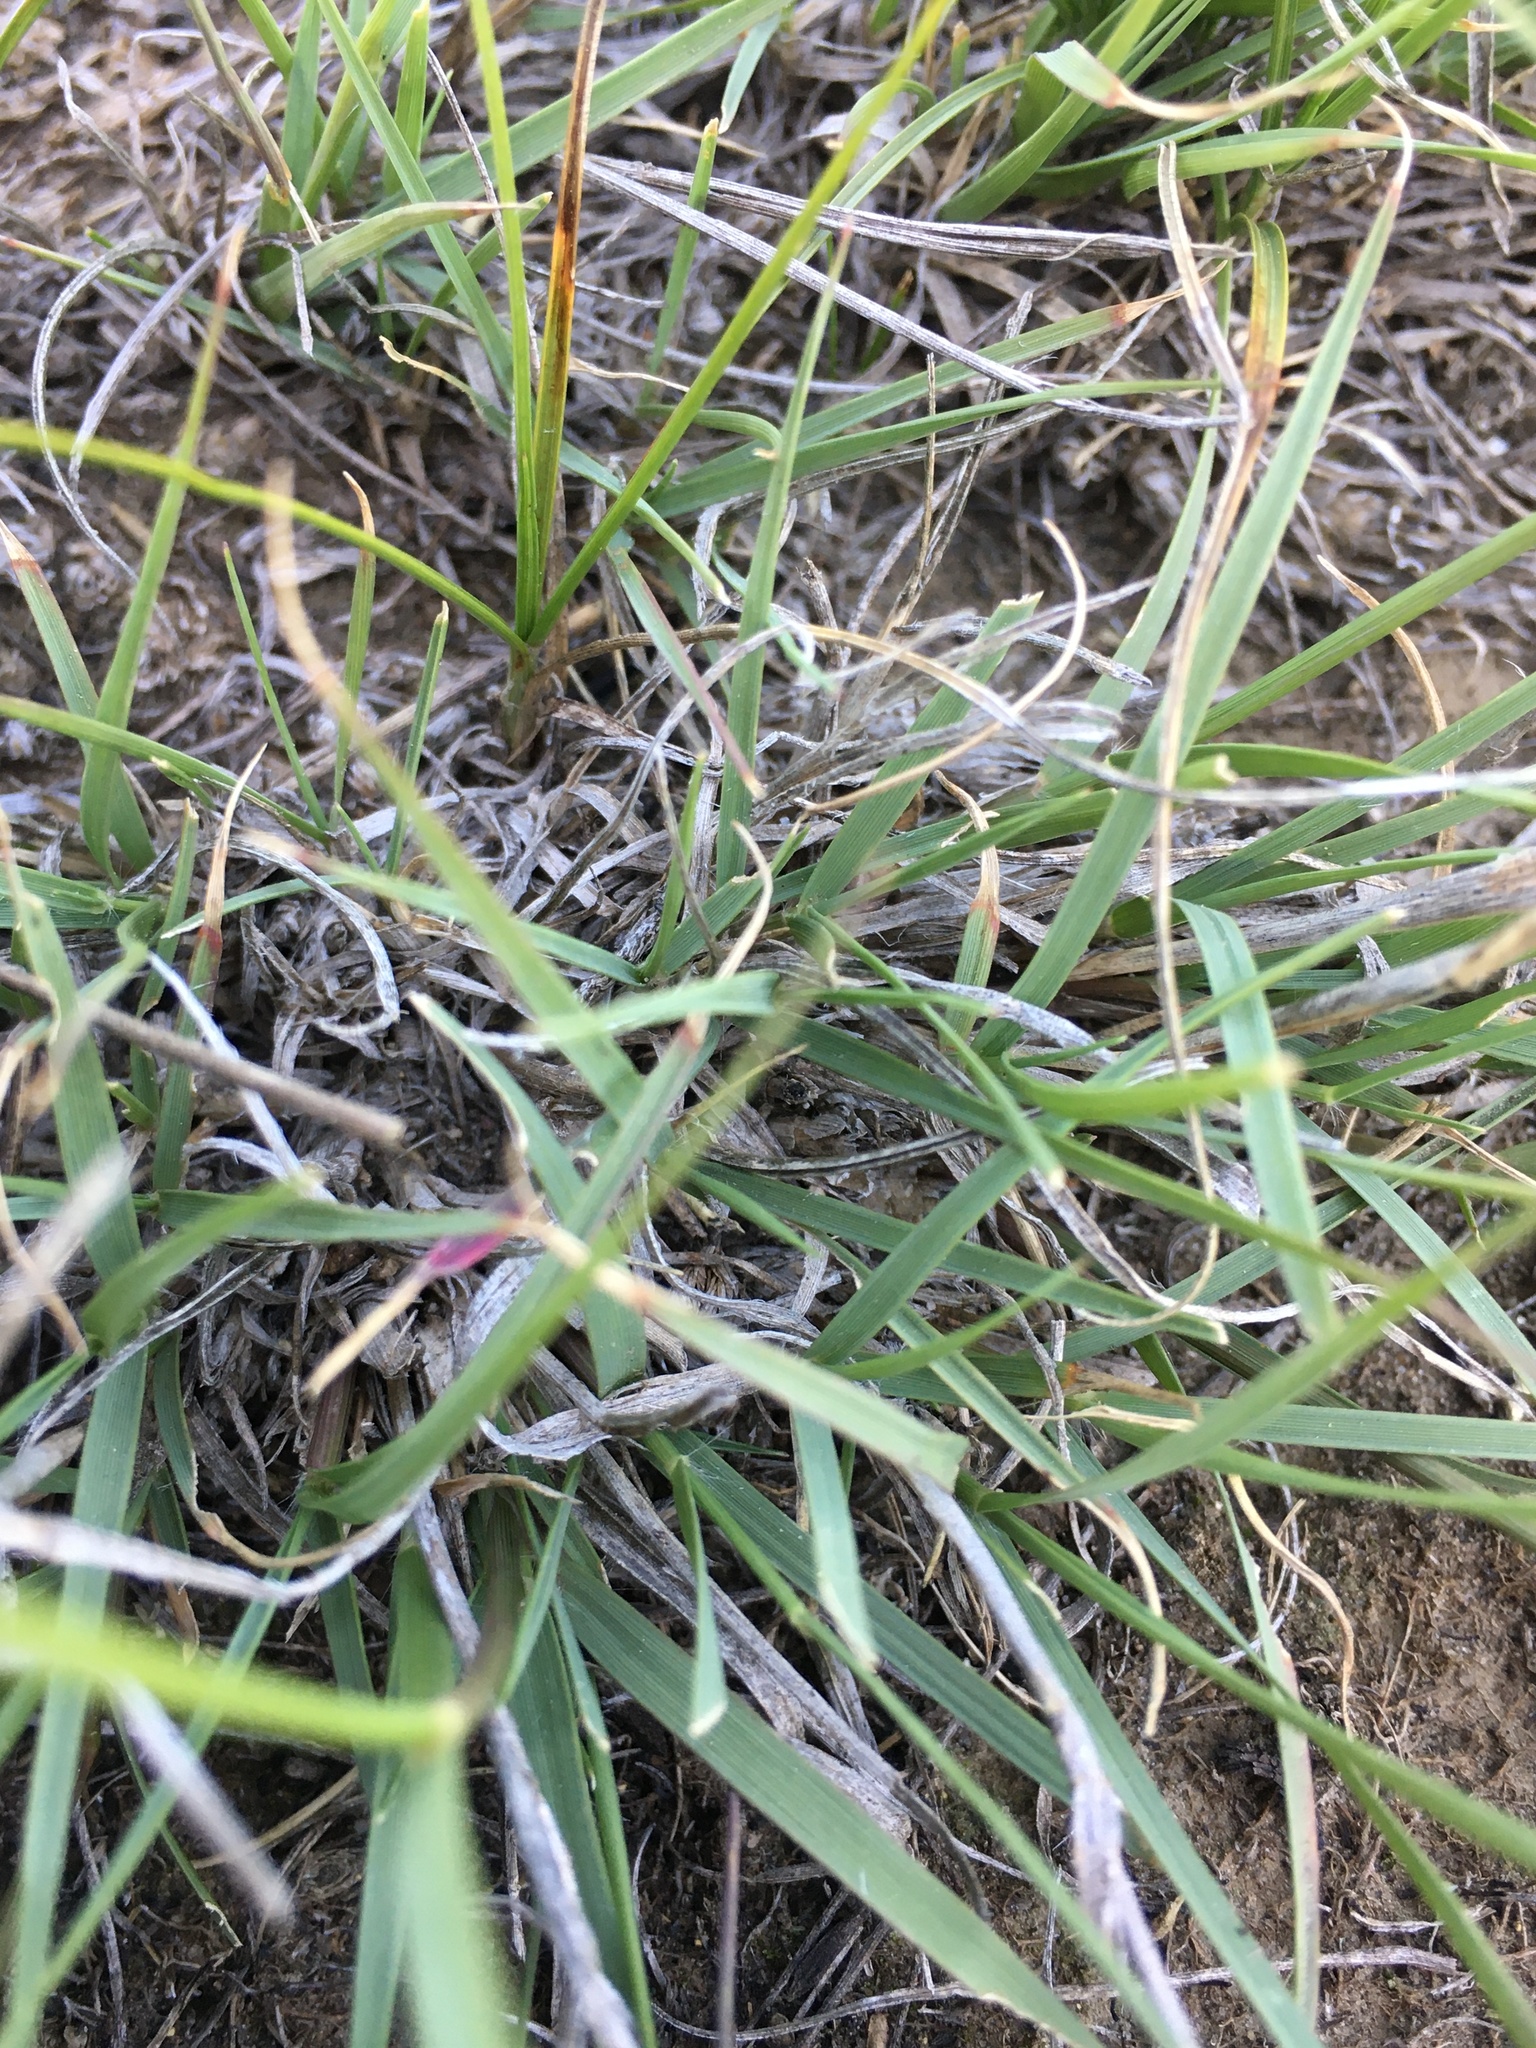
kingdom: Plantae
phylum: Tracheophyta
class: Liliopsida
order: Poales
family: Poaceae
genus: Bouteloua
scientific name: Bouteloua gracilis
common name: Blue grama
